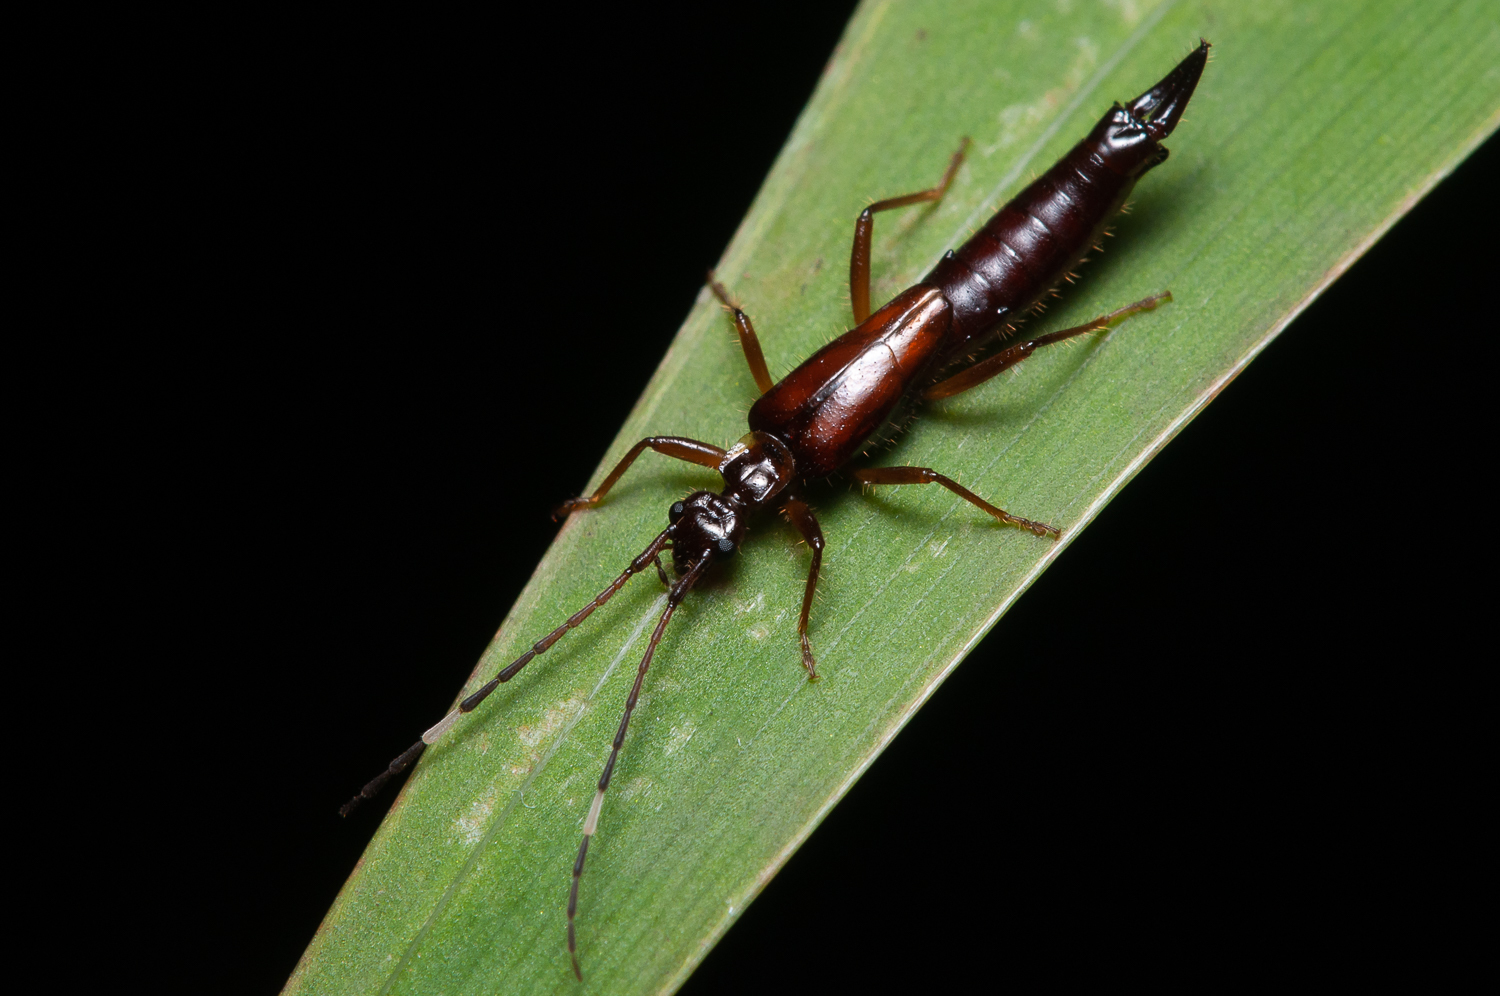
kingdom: Animalia
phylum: Arthropoda
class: Insecta
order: Dermaptera
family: Forficulidae
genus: Sarcinatrix
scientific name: Sarcinatrix anomalia
